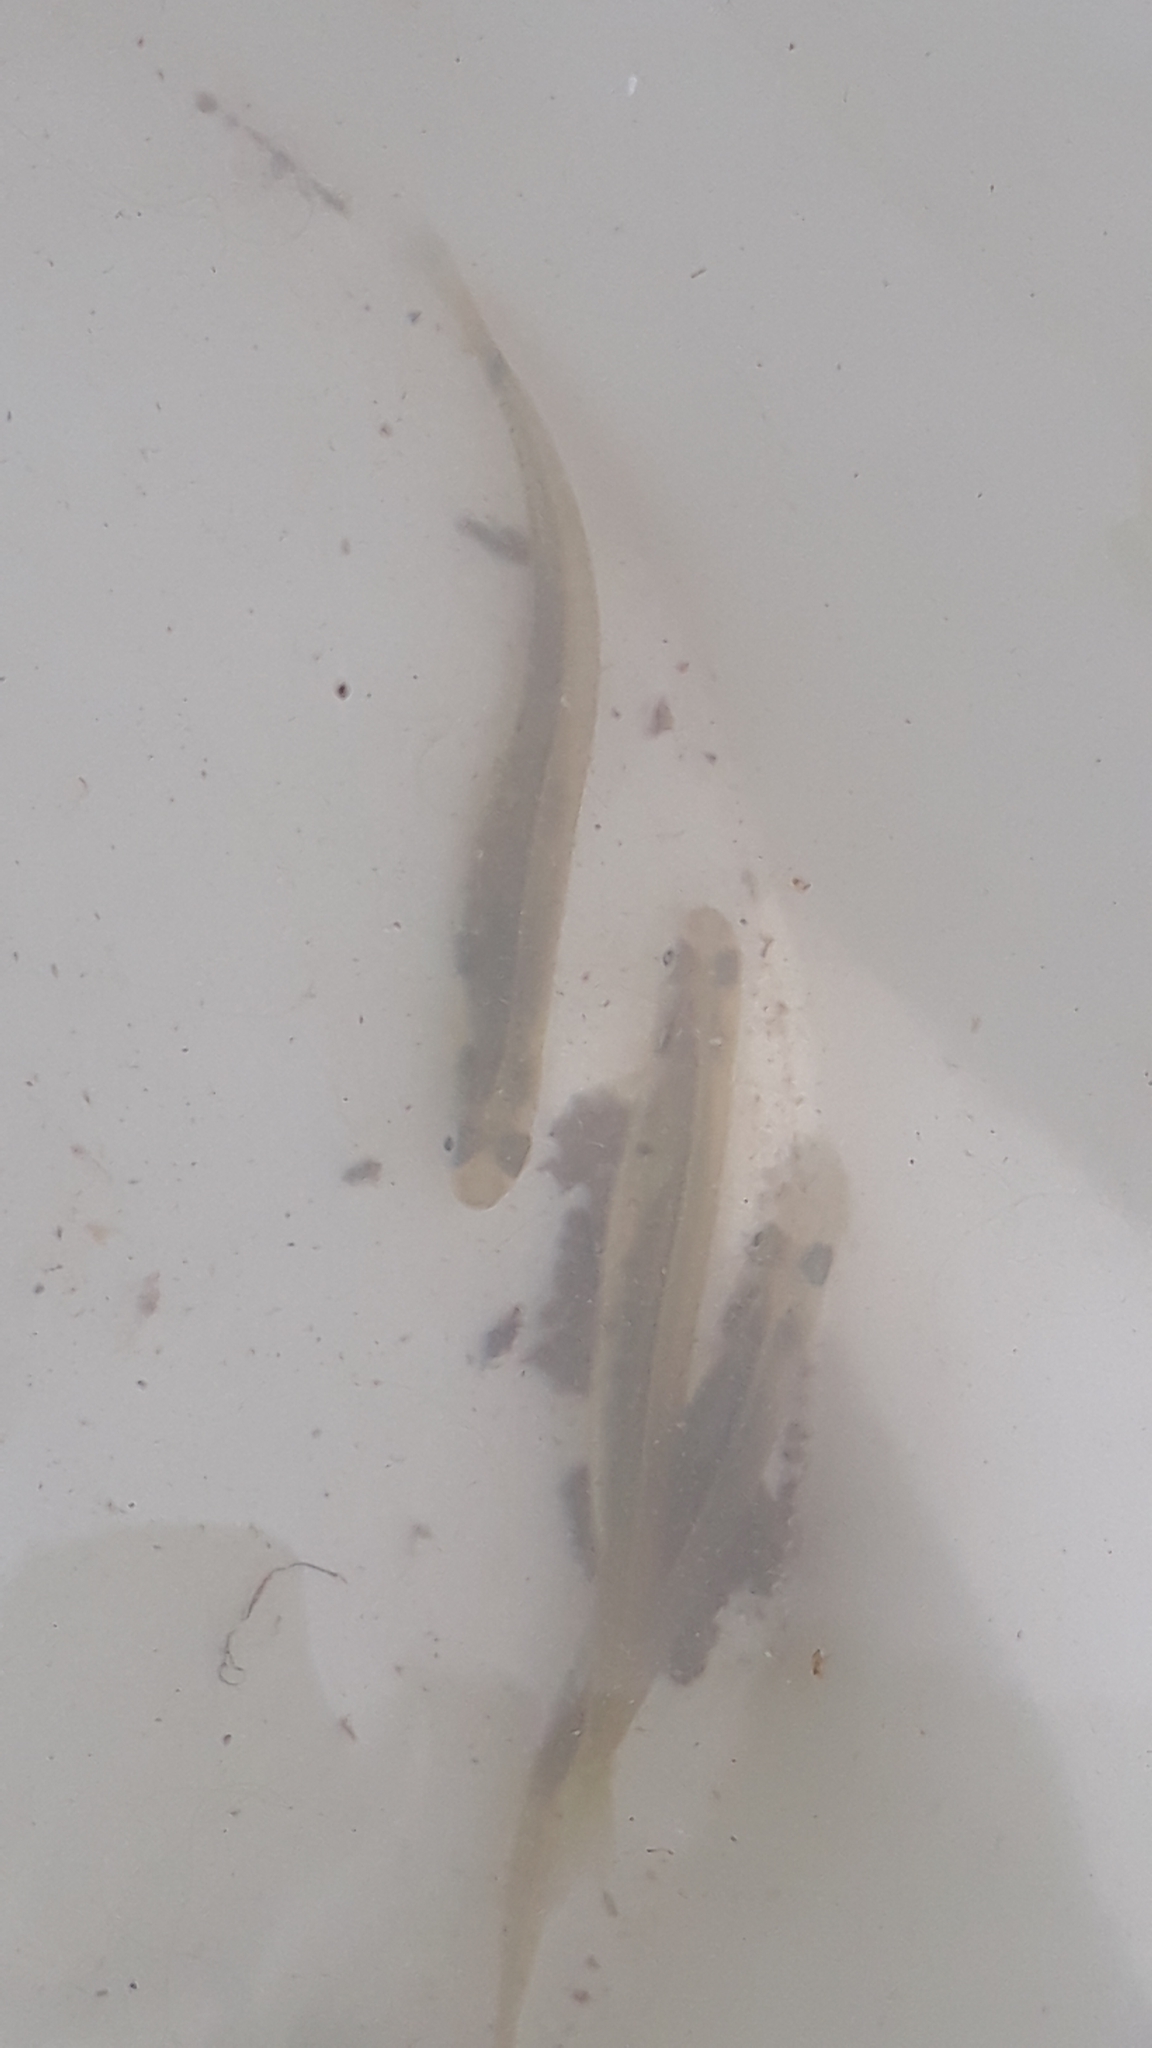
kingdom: Animalia
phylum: Chordata
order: Osmeriformes
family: Galaxiidae
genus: Galaxias
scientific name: Galaxias maculatus
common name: Common galaxias
